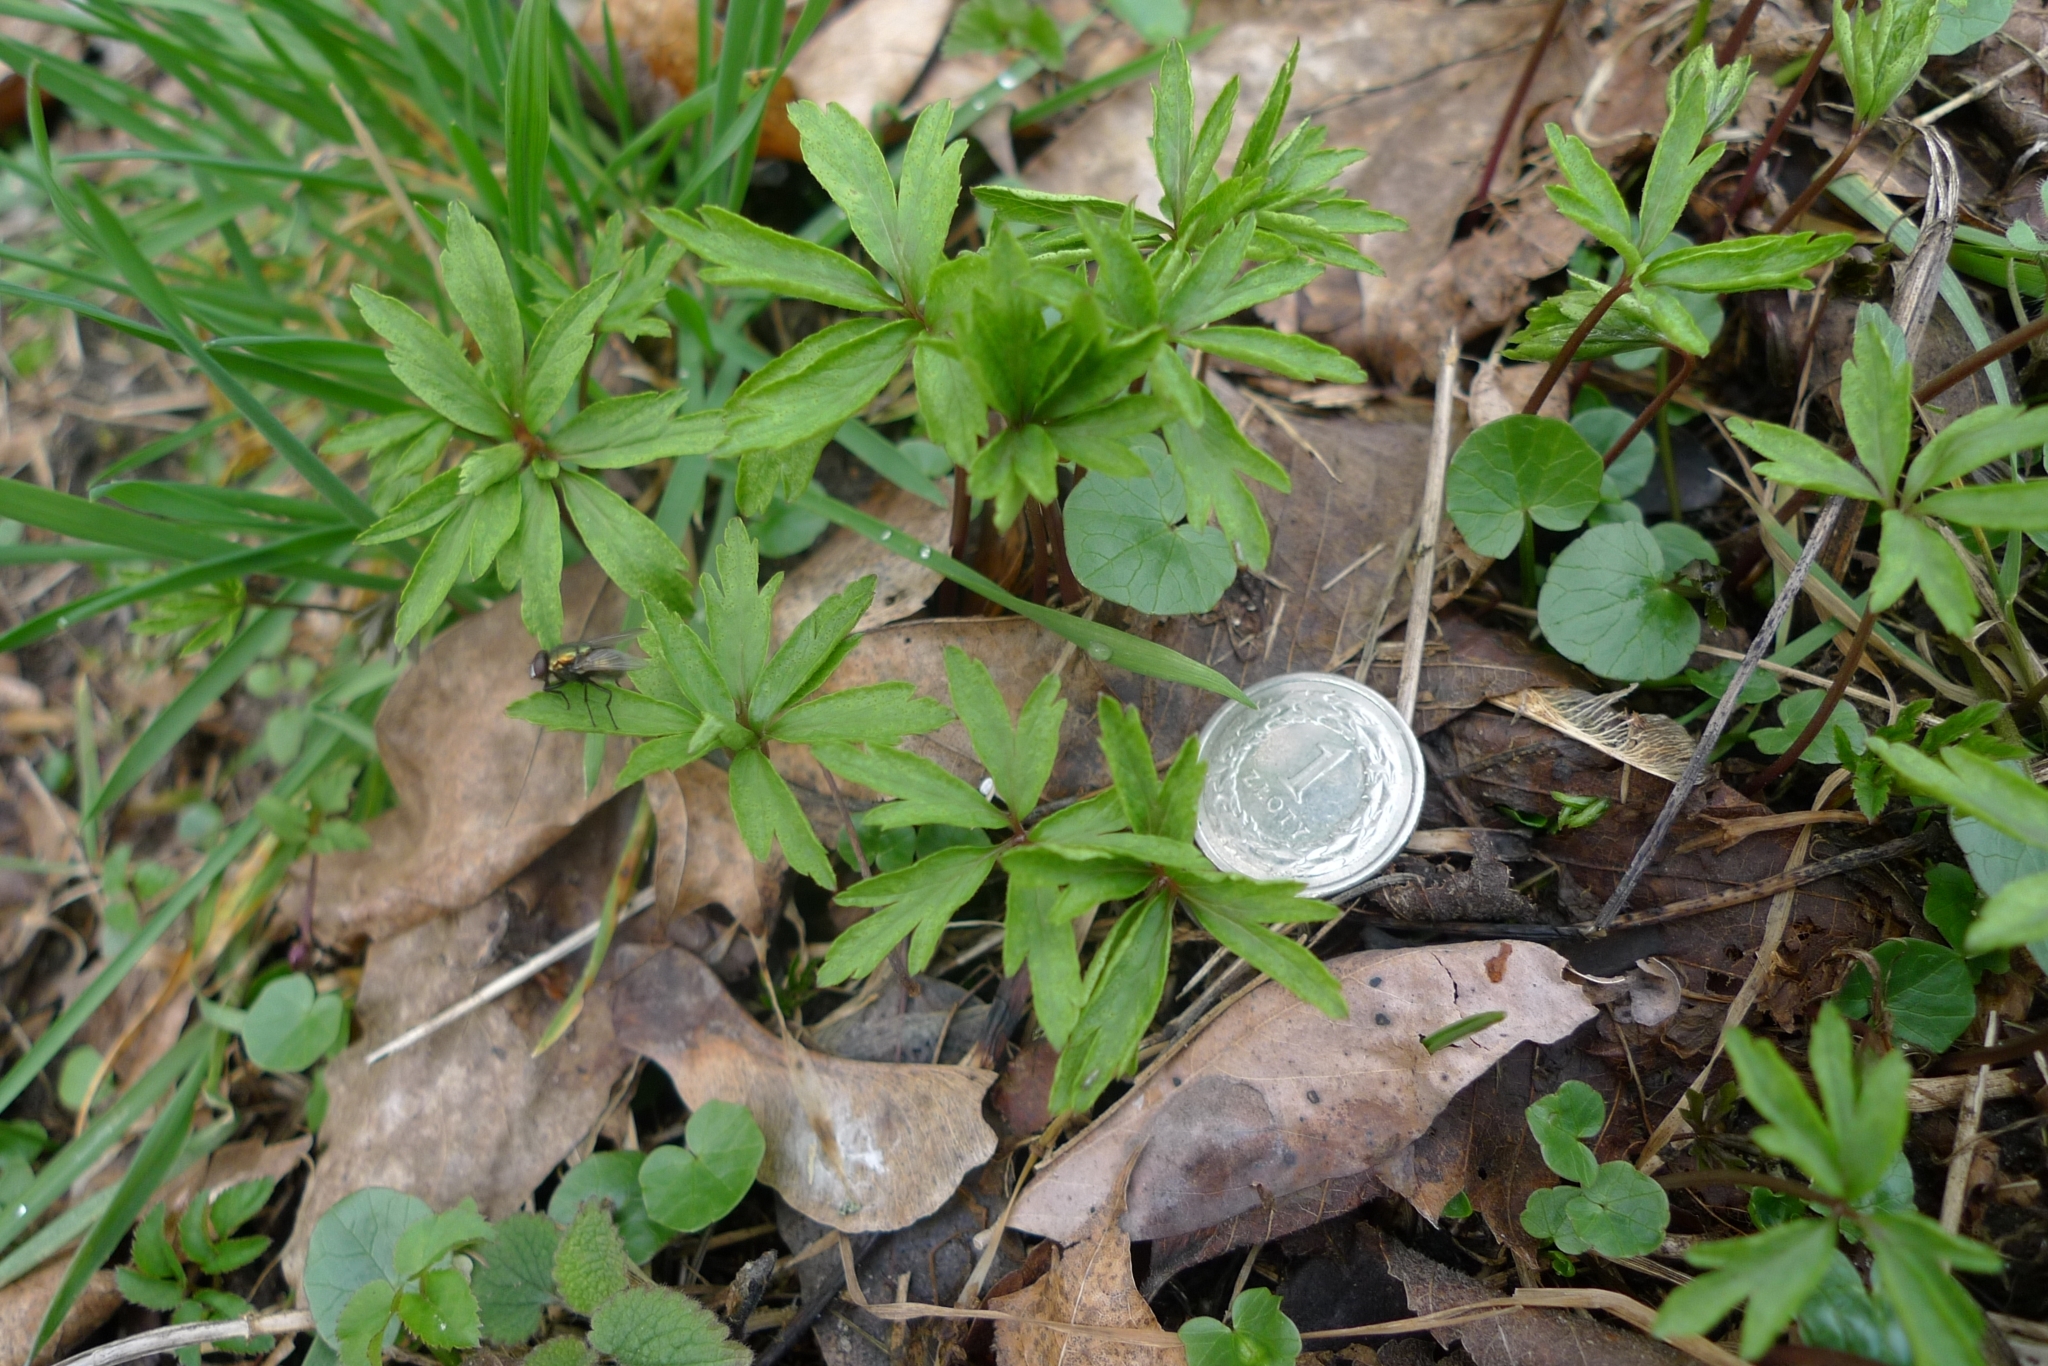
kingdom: Plantae
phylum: Tracheophyta
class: Magnoliopsida
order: Ranunculales
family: Ranunculaceae
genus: Anemone
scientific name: Anemone ranunculoides
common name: Yellow anemone
